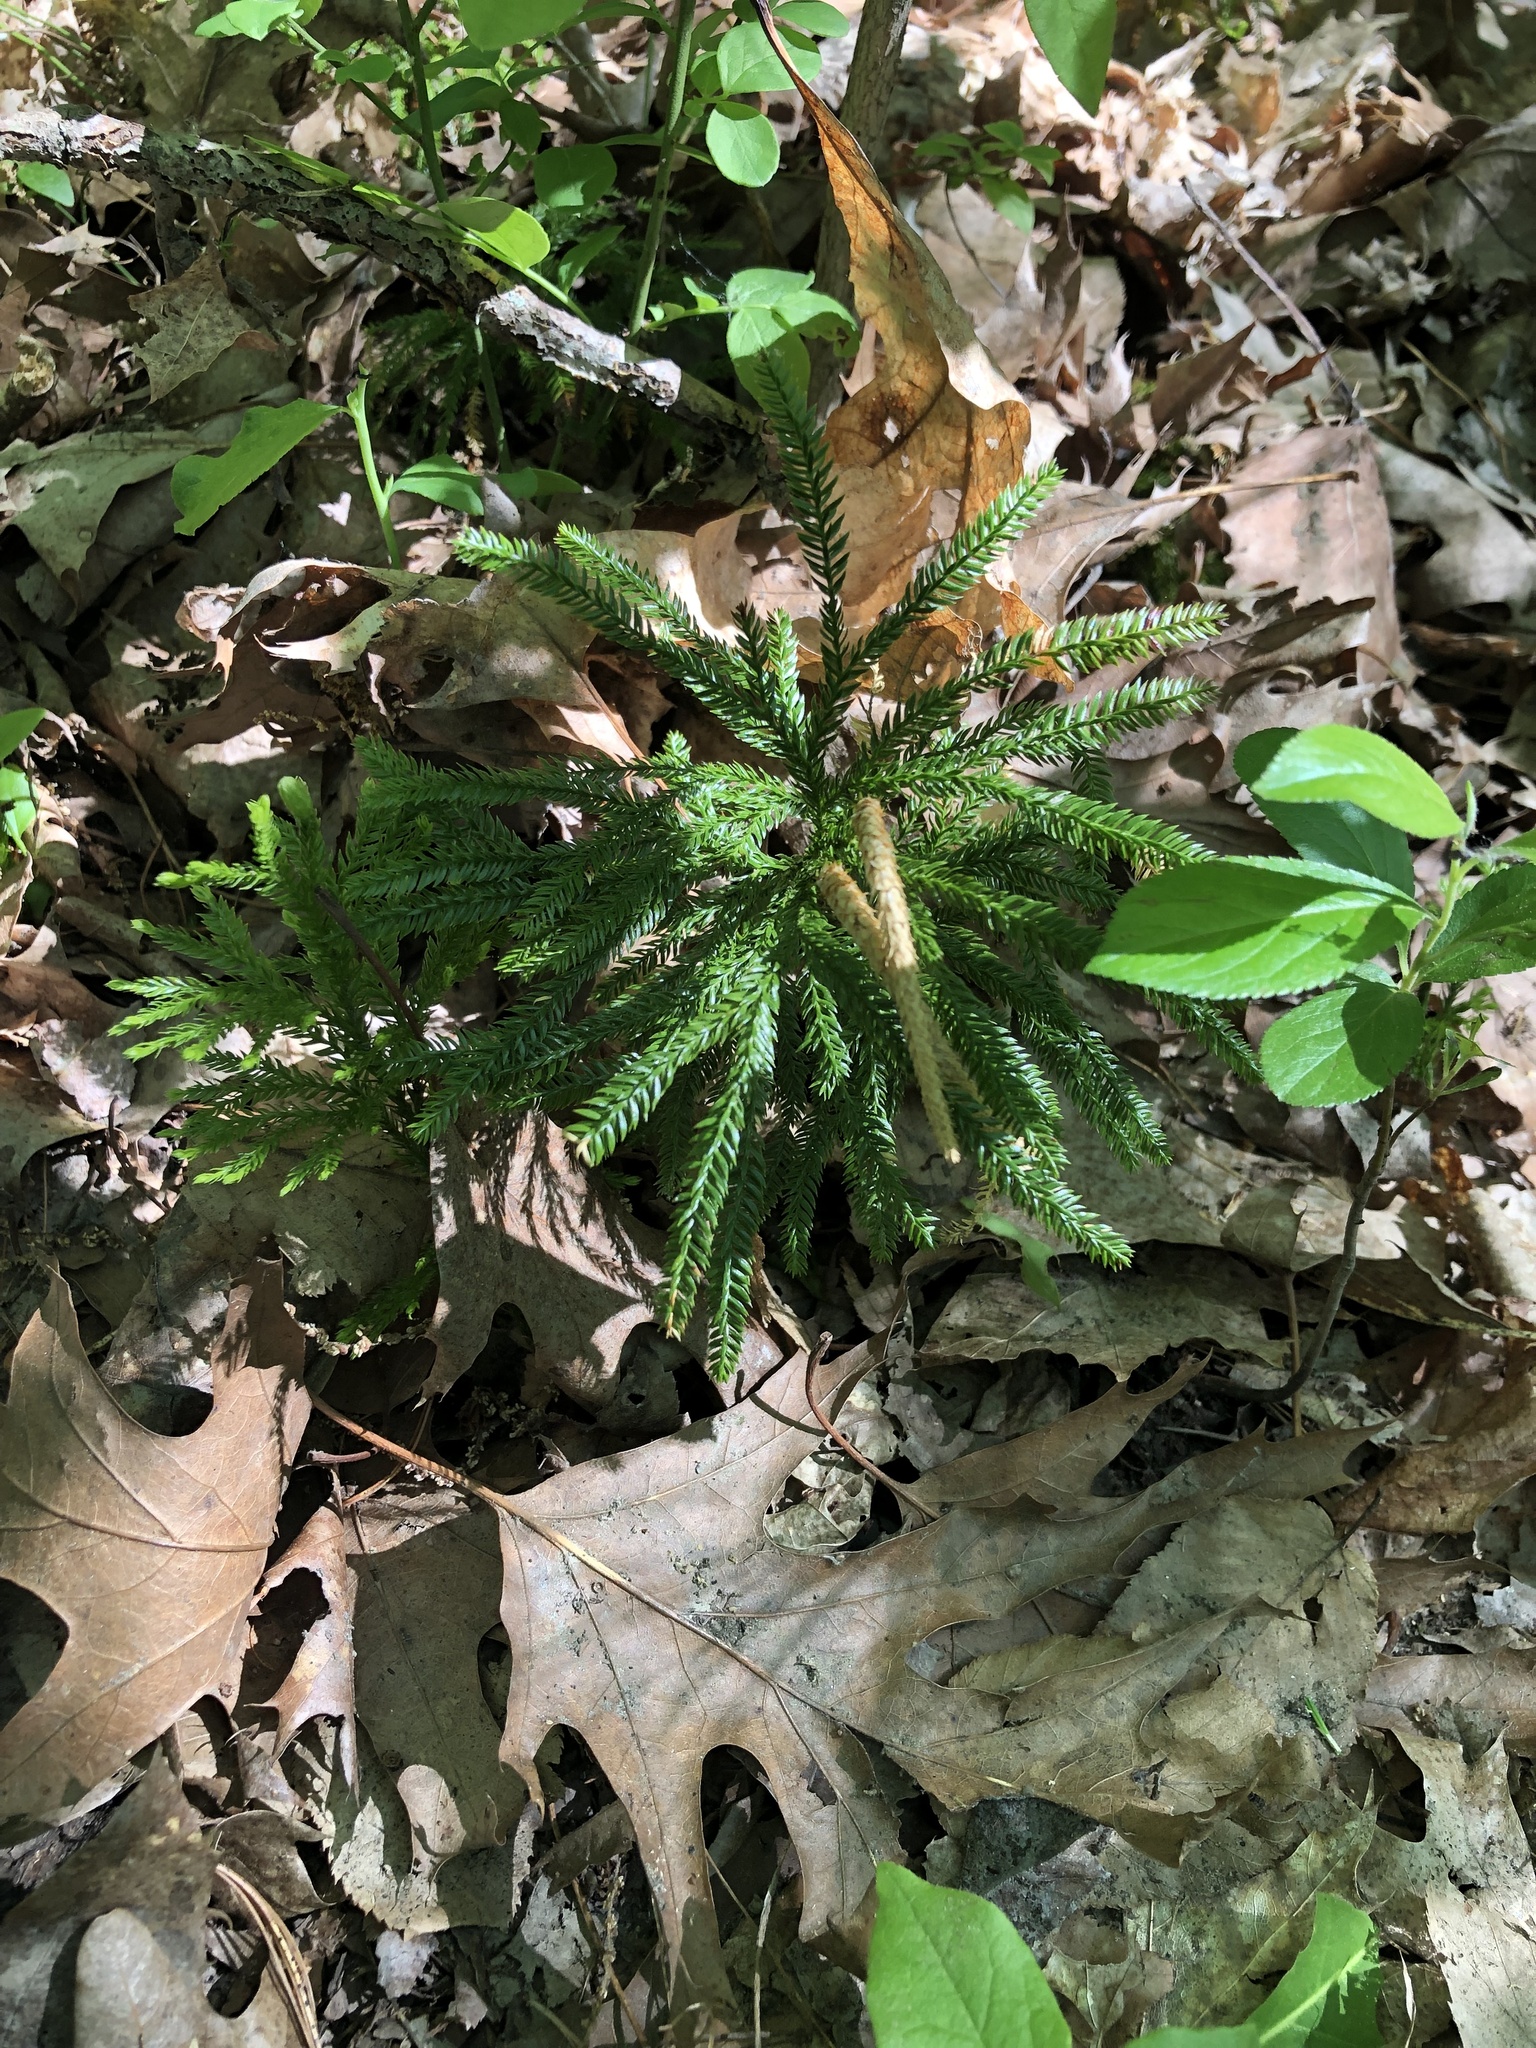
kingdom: Plantae
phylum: Tracheophyta
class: Lycopodiopsida
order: Lycopodiales
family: Lycopodiaceae
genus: Dendrolycopodium
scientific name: Dendrolycopodium obscurum
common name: Common ground-pine
